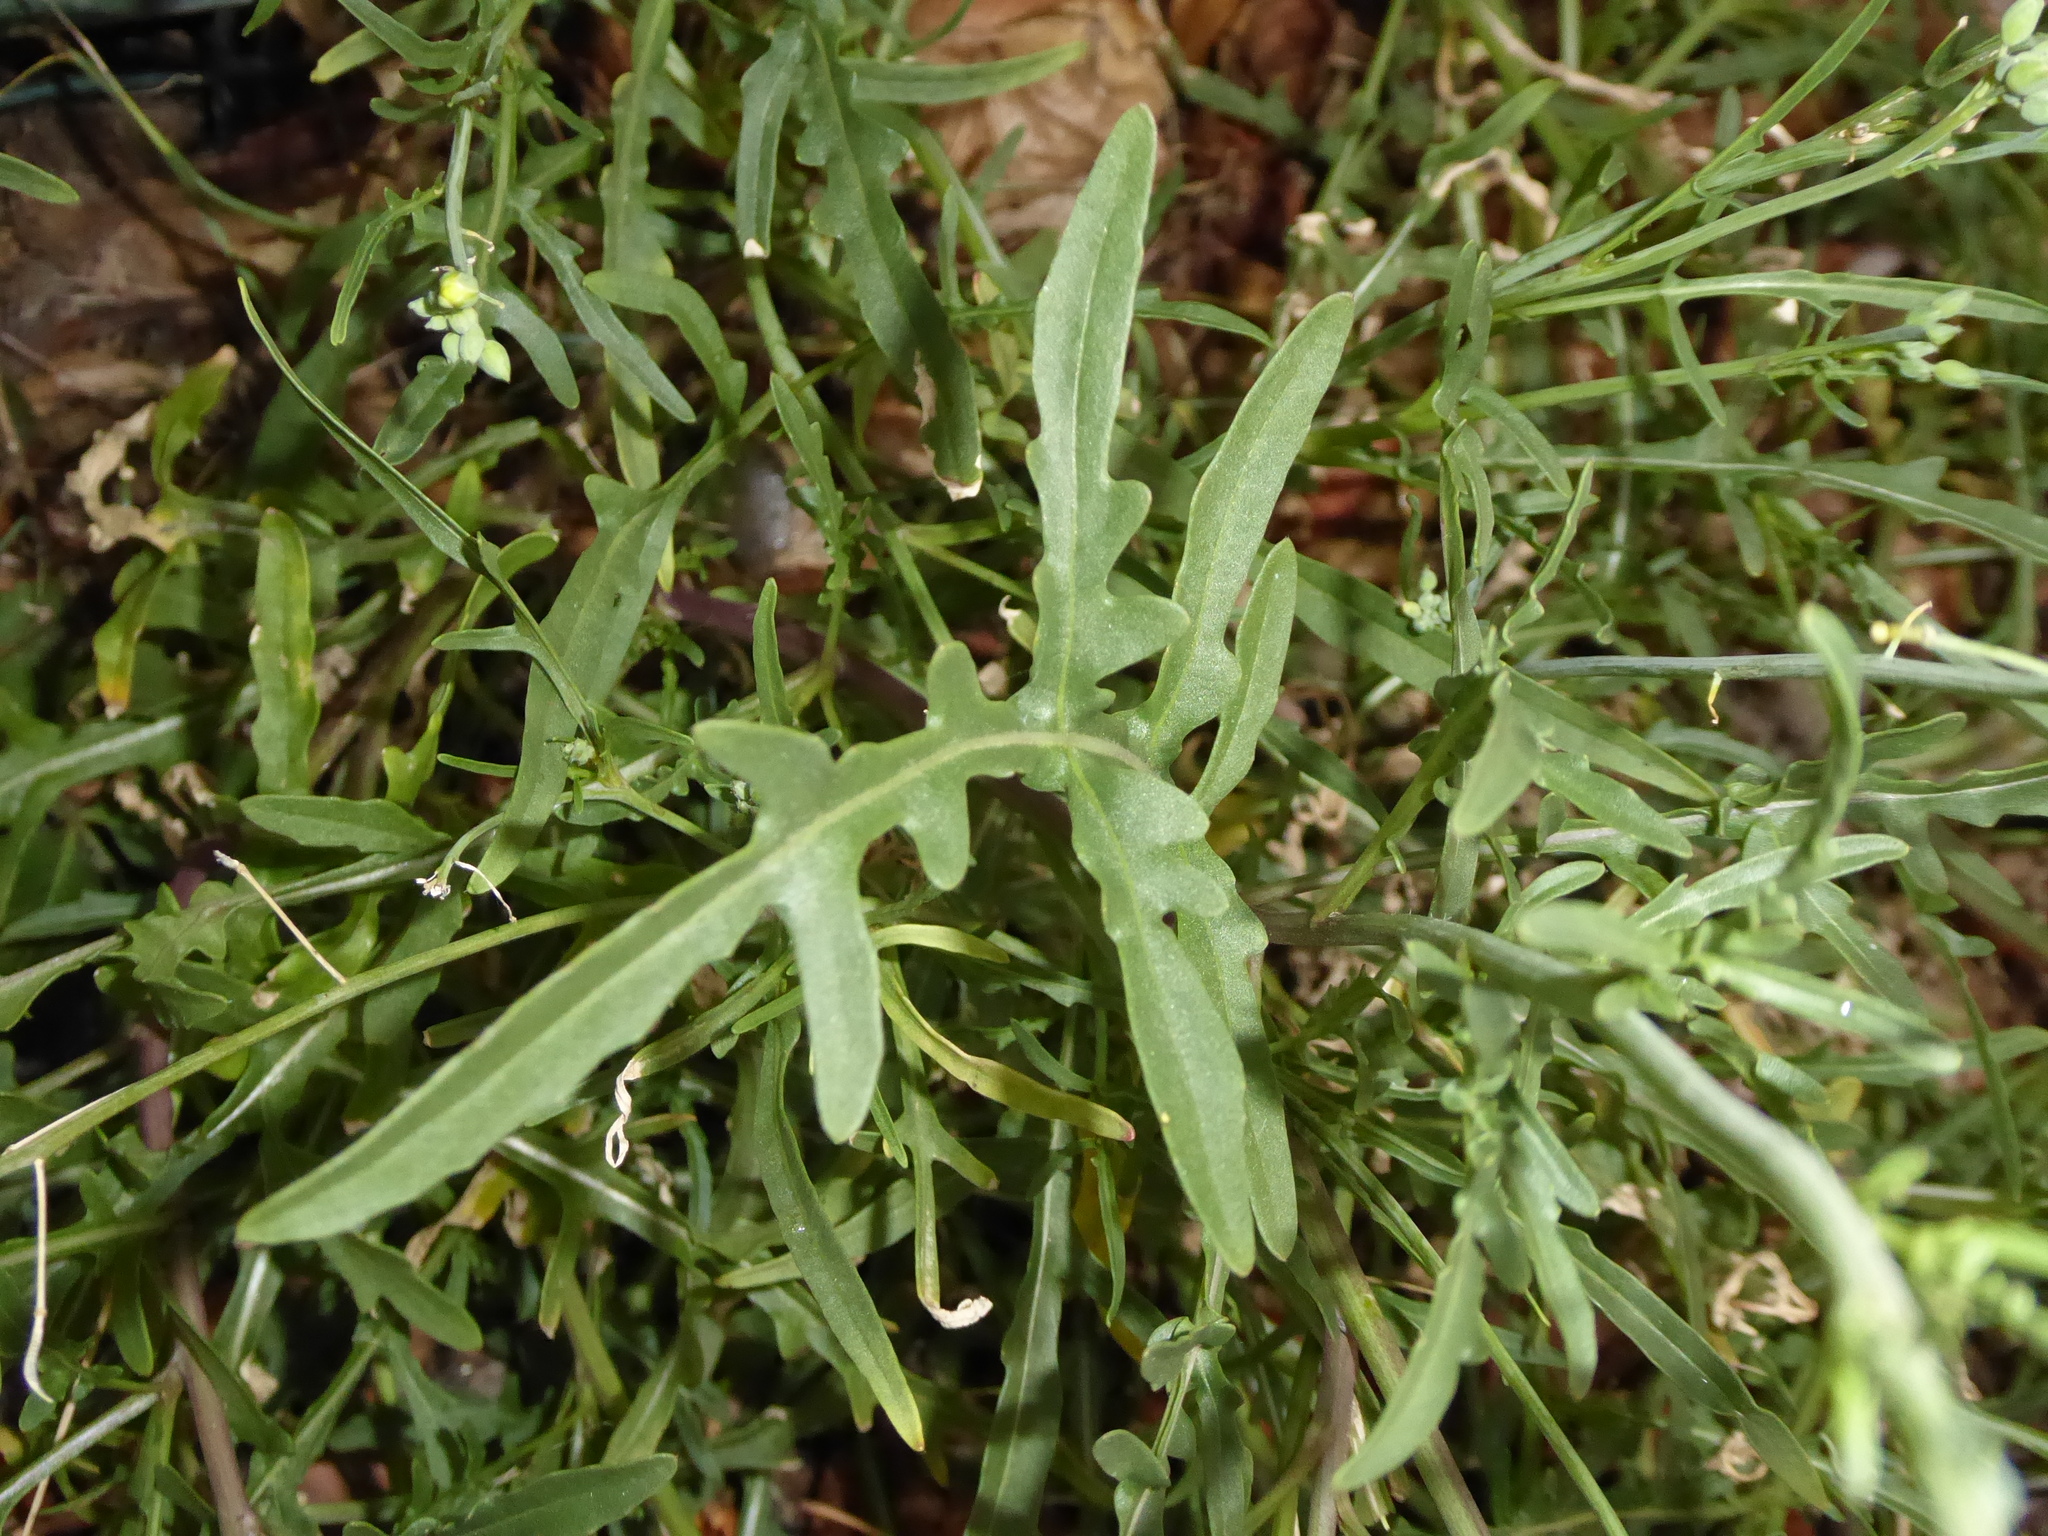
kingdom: Plantae
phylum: Tracheophyta
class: Magnoliopsida
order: Brassicales
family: Brassicaceae
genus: Diplotaxis
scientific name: Diplotaxis tenuifolia
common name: Perennial wall-rocket
